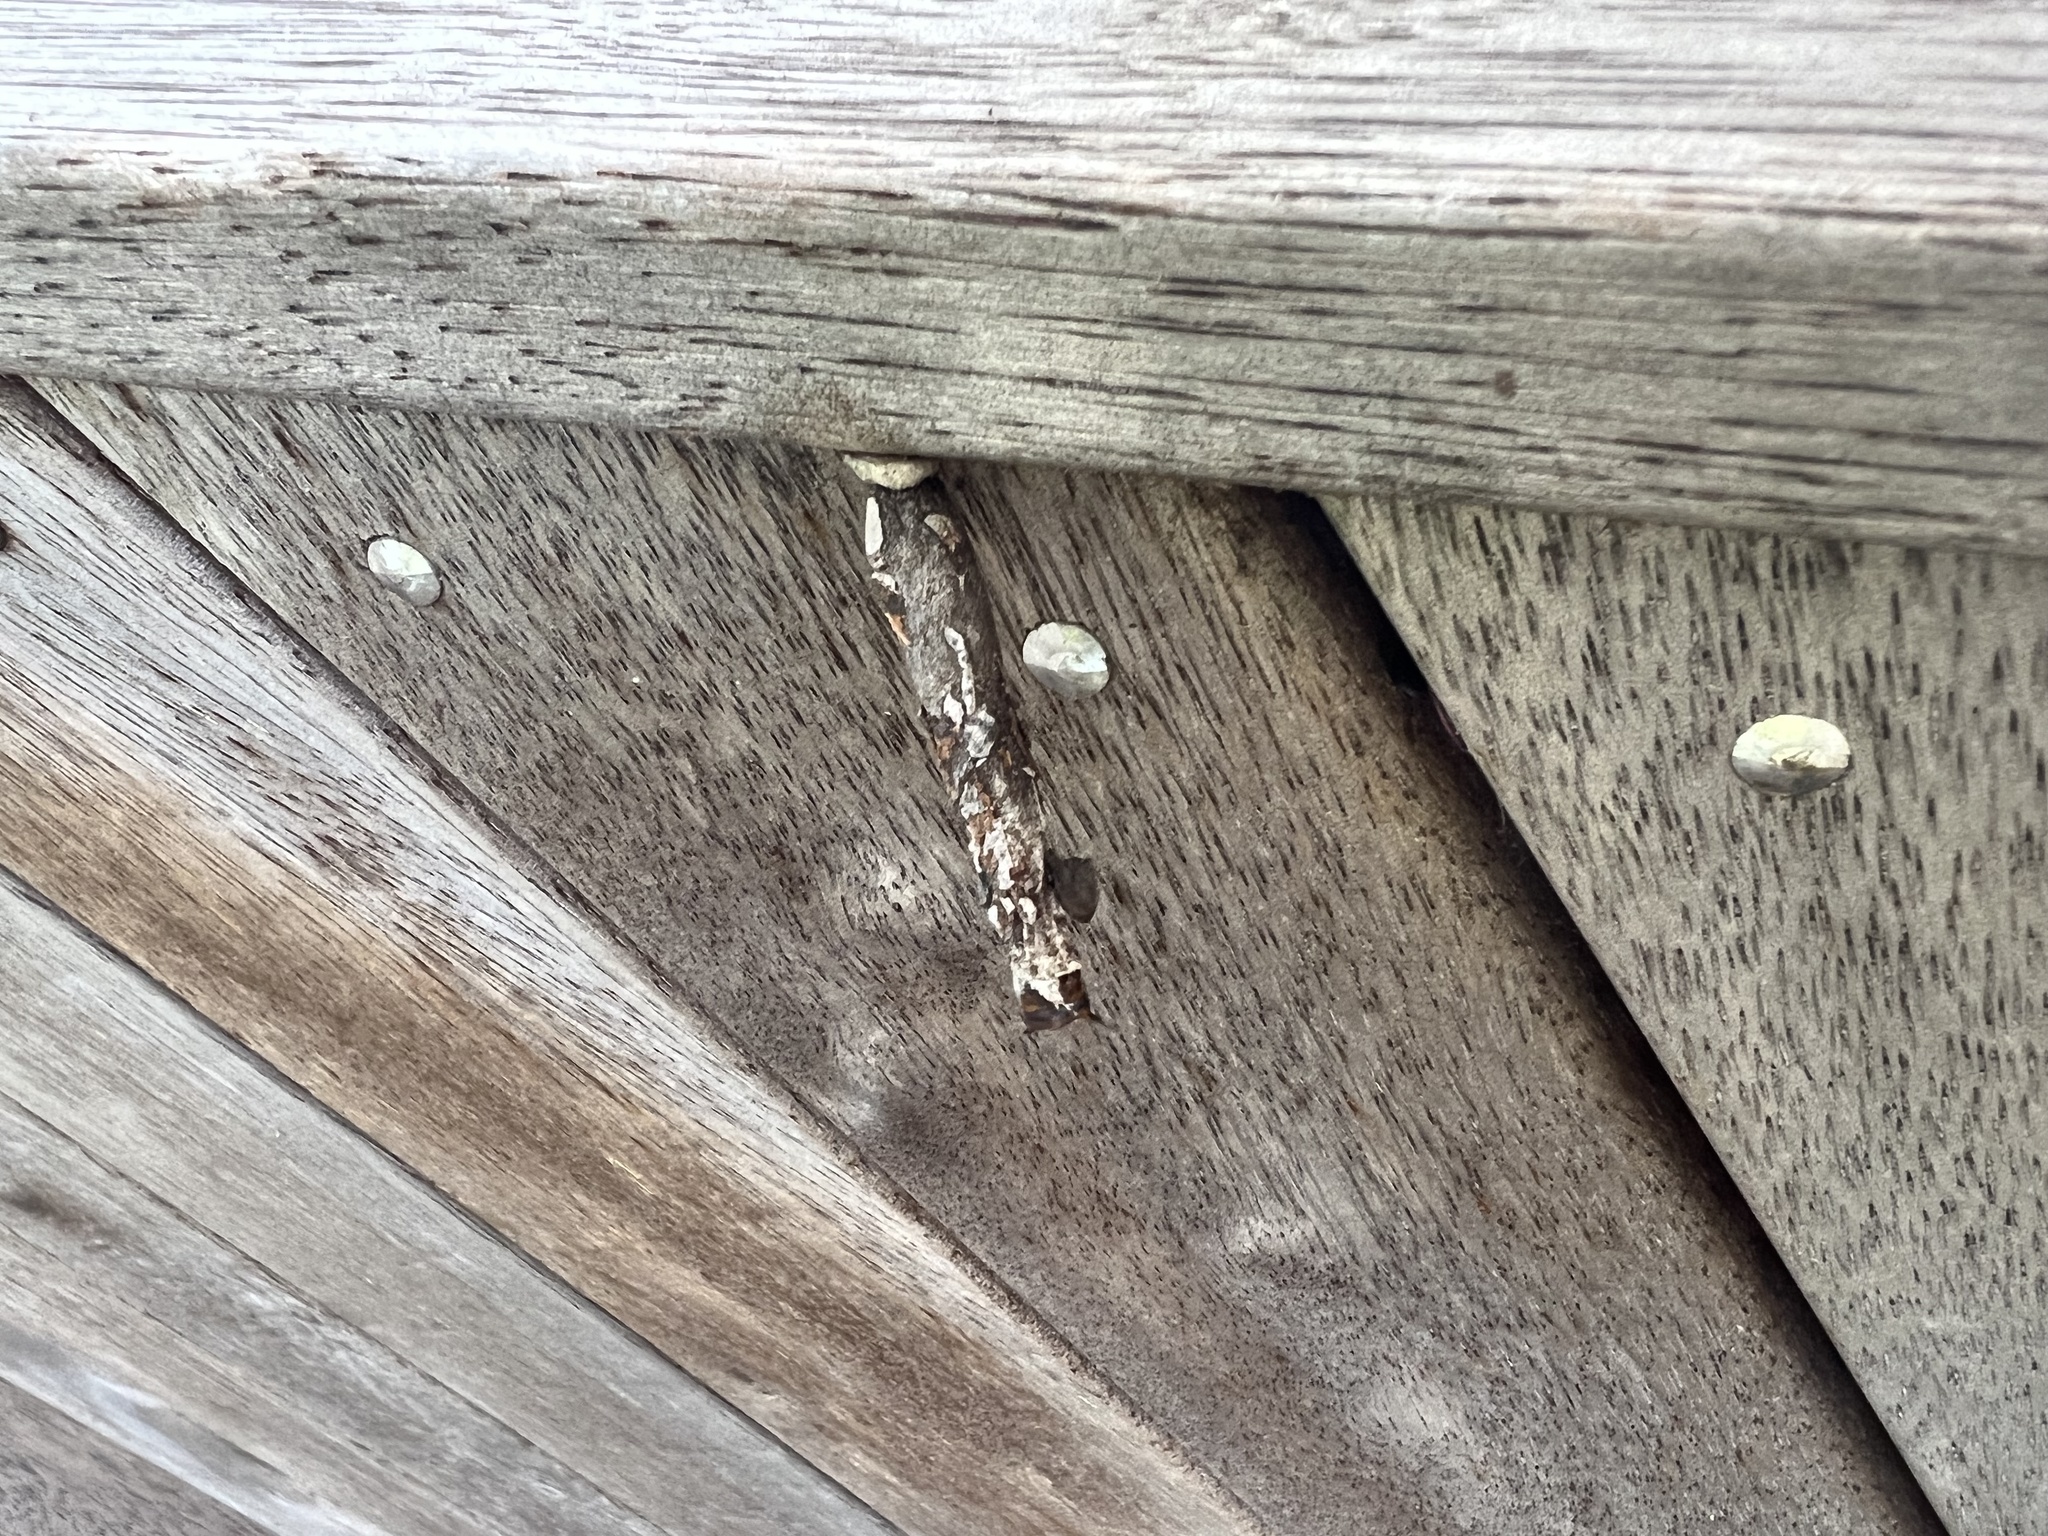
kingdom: Animalia
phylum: Arthropoda
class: Insecta
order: Lepidoptera
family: Psychidae
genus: Liothula
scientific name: Liothula omnivora
